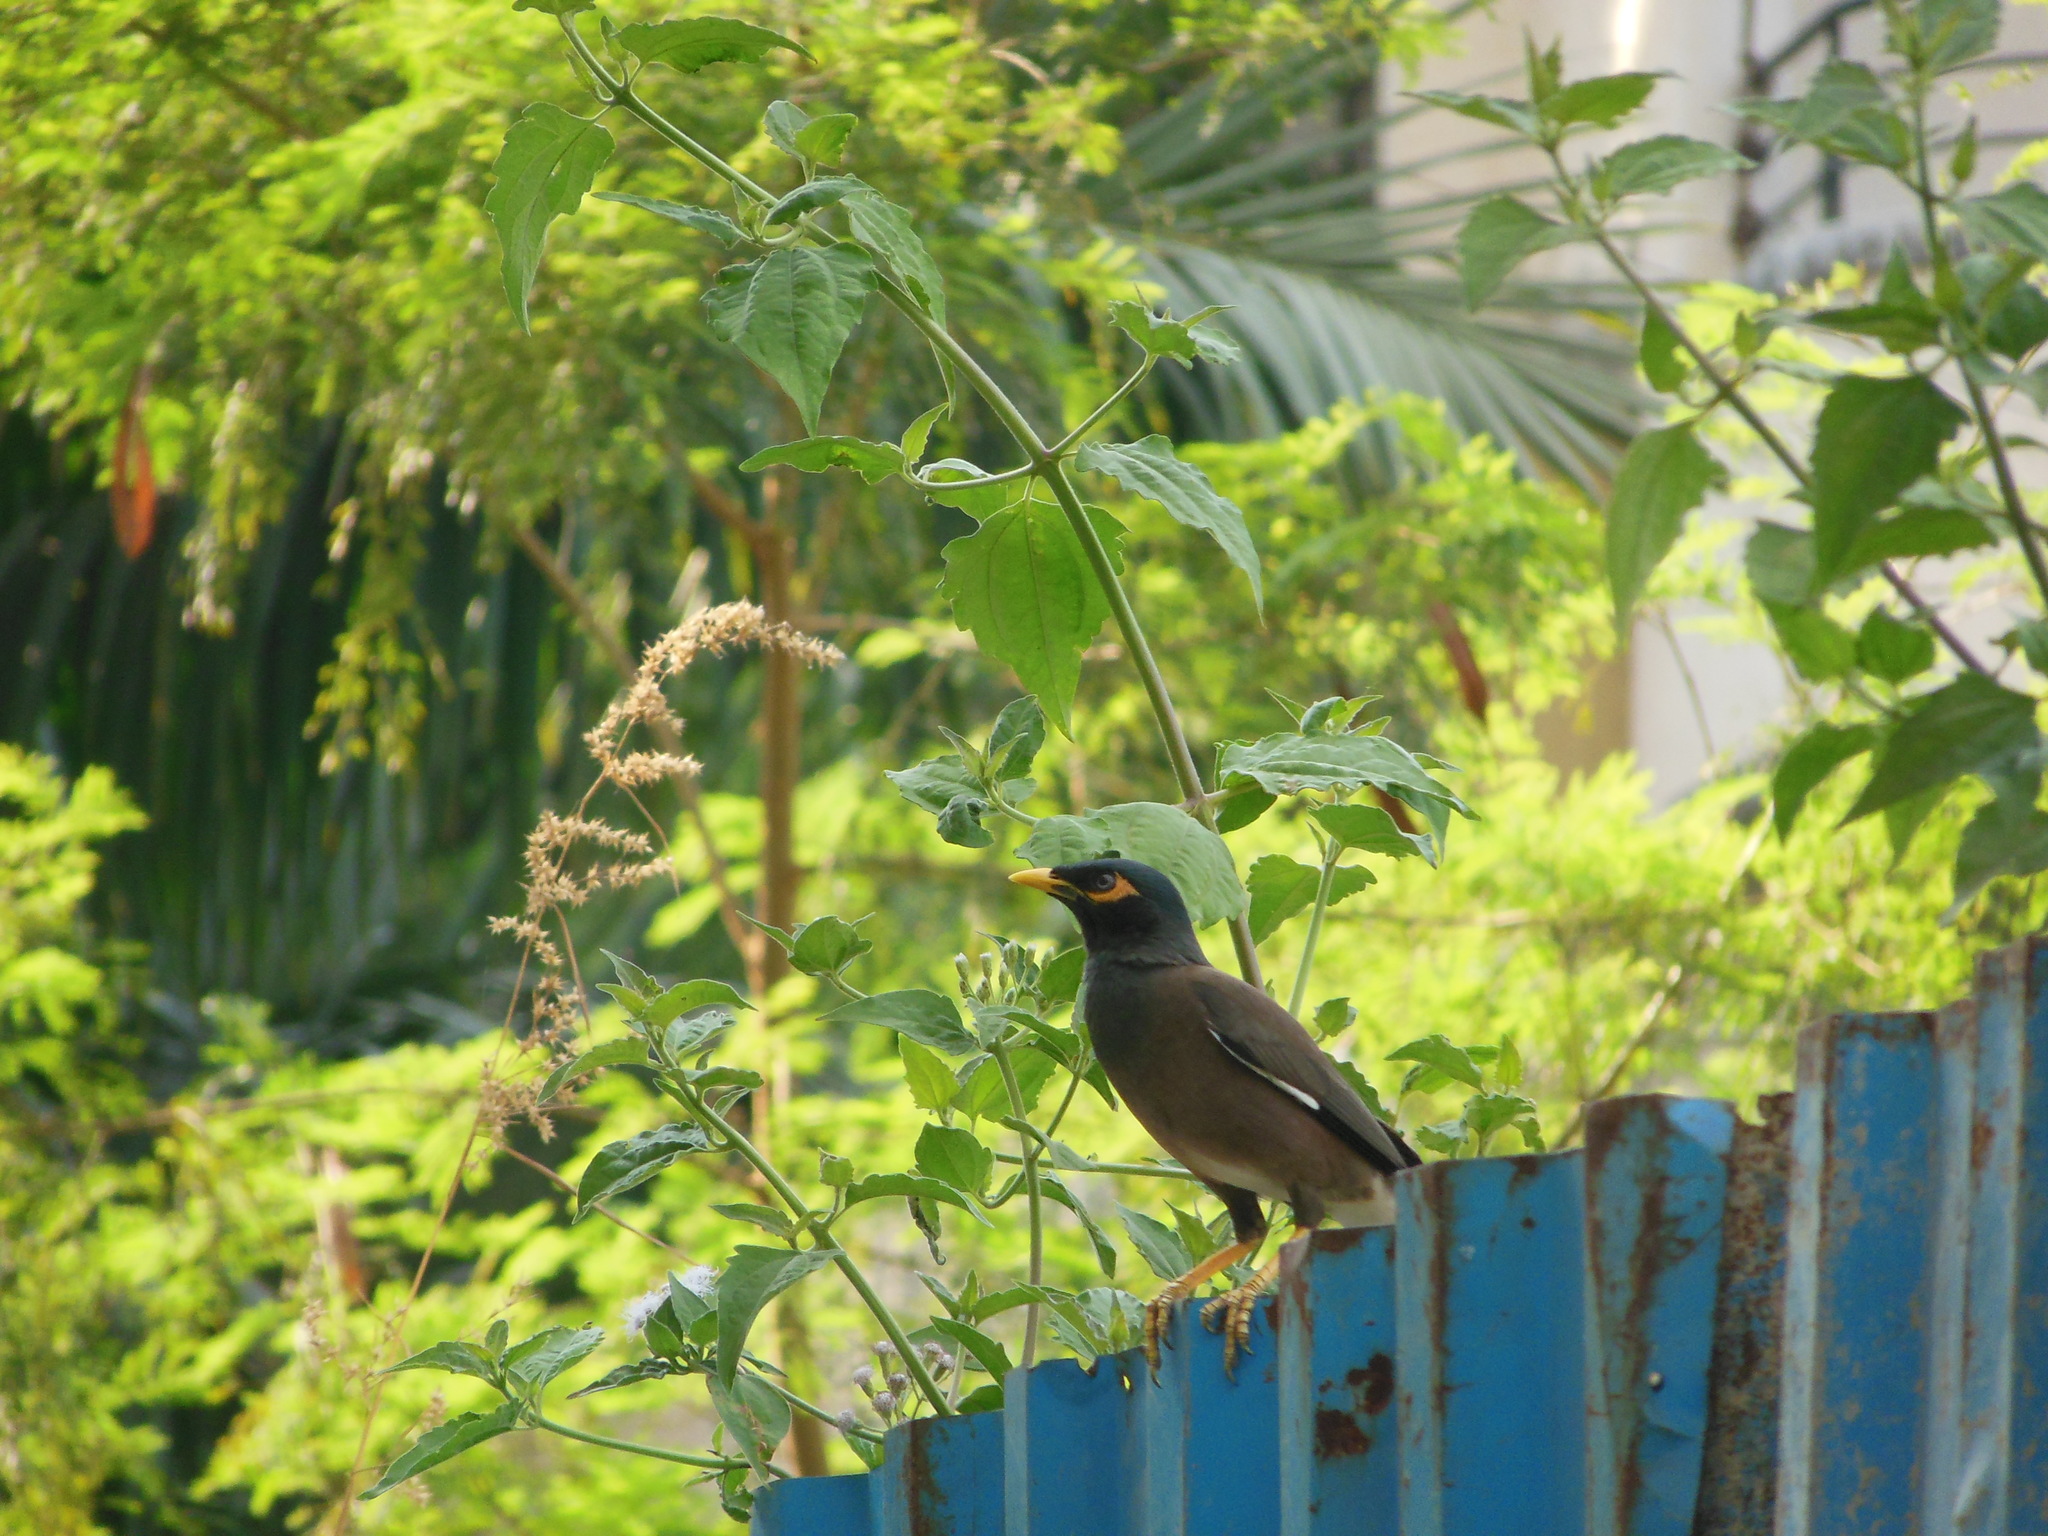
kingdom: Animalia
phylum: Chordata
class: Aves
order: Passeriformes
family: Sturnidae
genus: Acridotheres
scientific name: Acridotheres tristis
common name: Common myna
